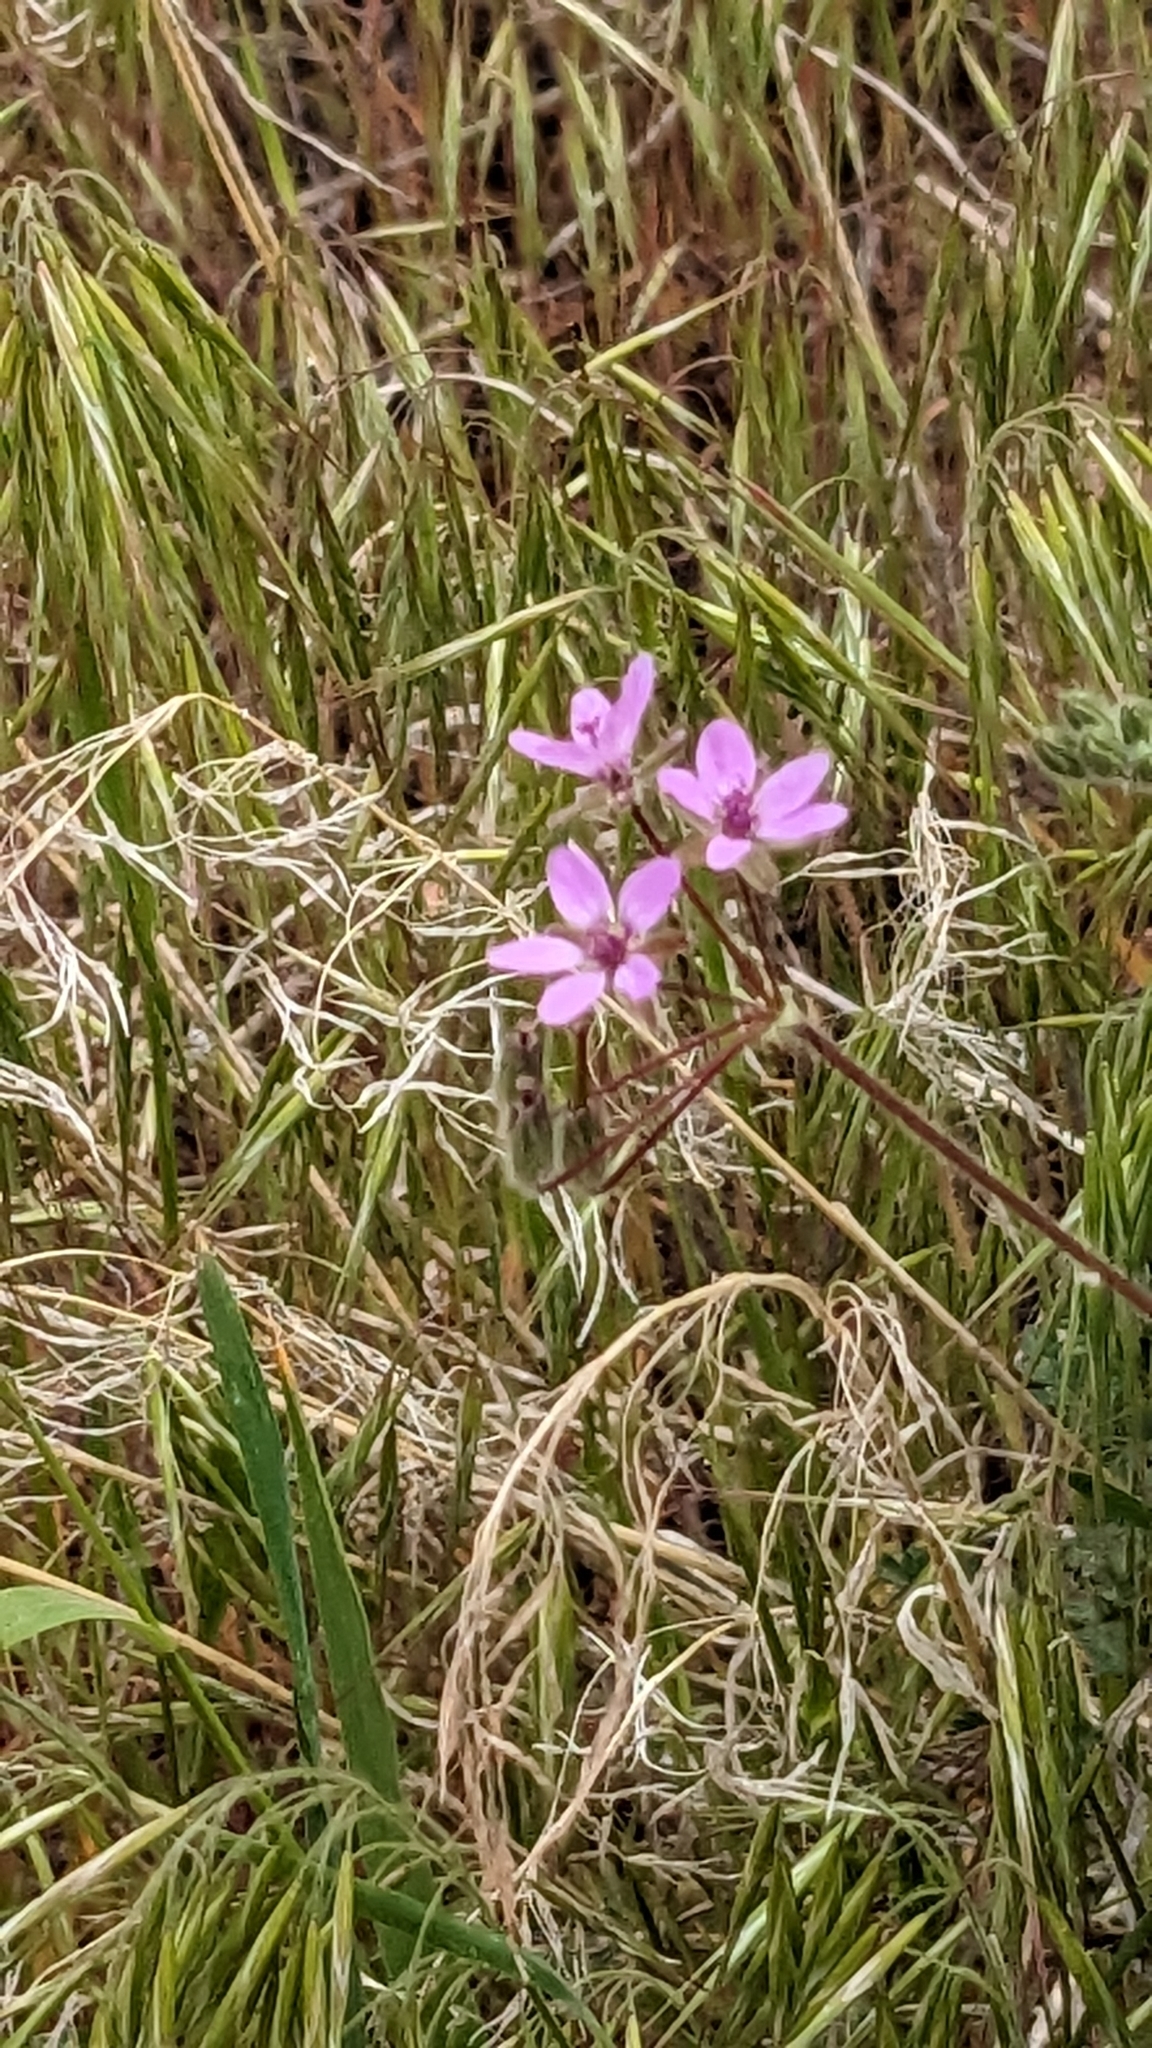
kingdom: Plantae
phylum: Tracheophyta
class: Magnoliopsida
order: Geraniales
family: Geraniaceae
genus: Erodium
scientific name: Erodium cicutarium
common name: Common stork's-bill
